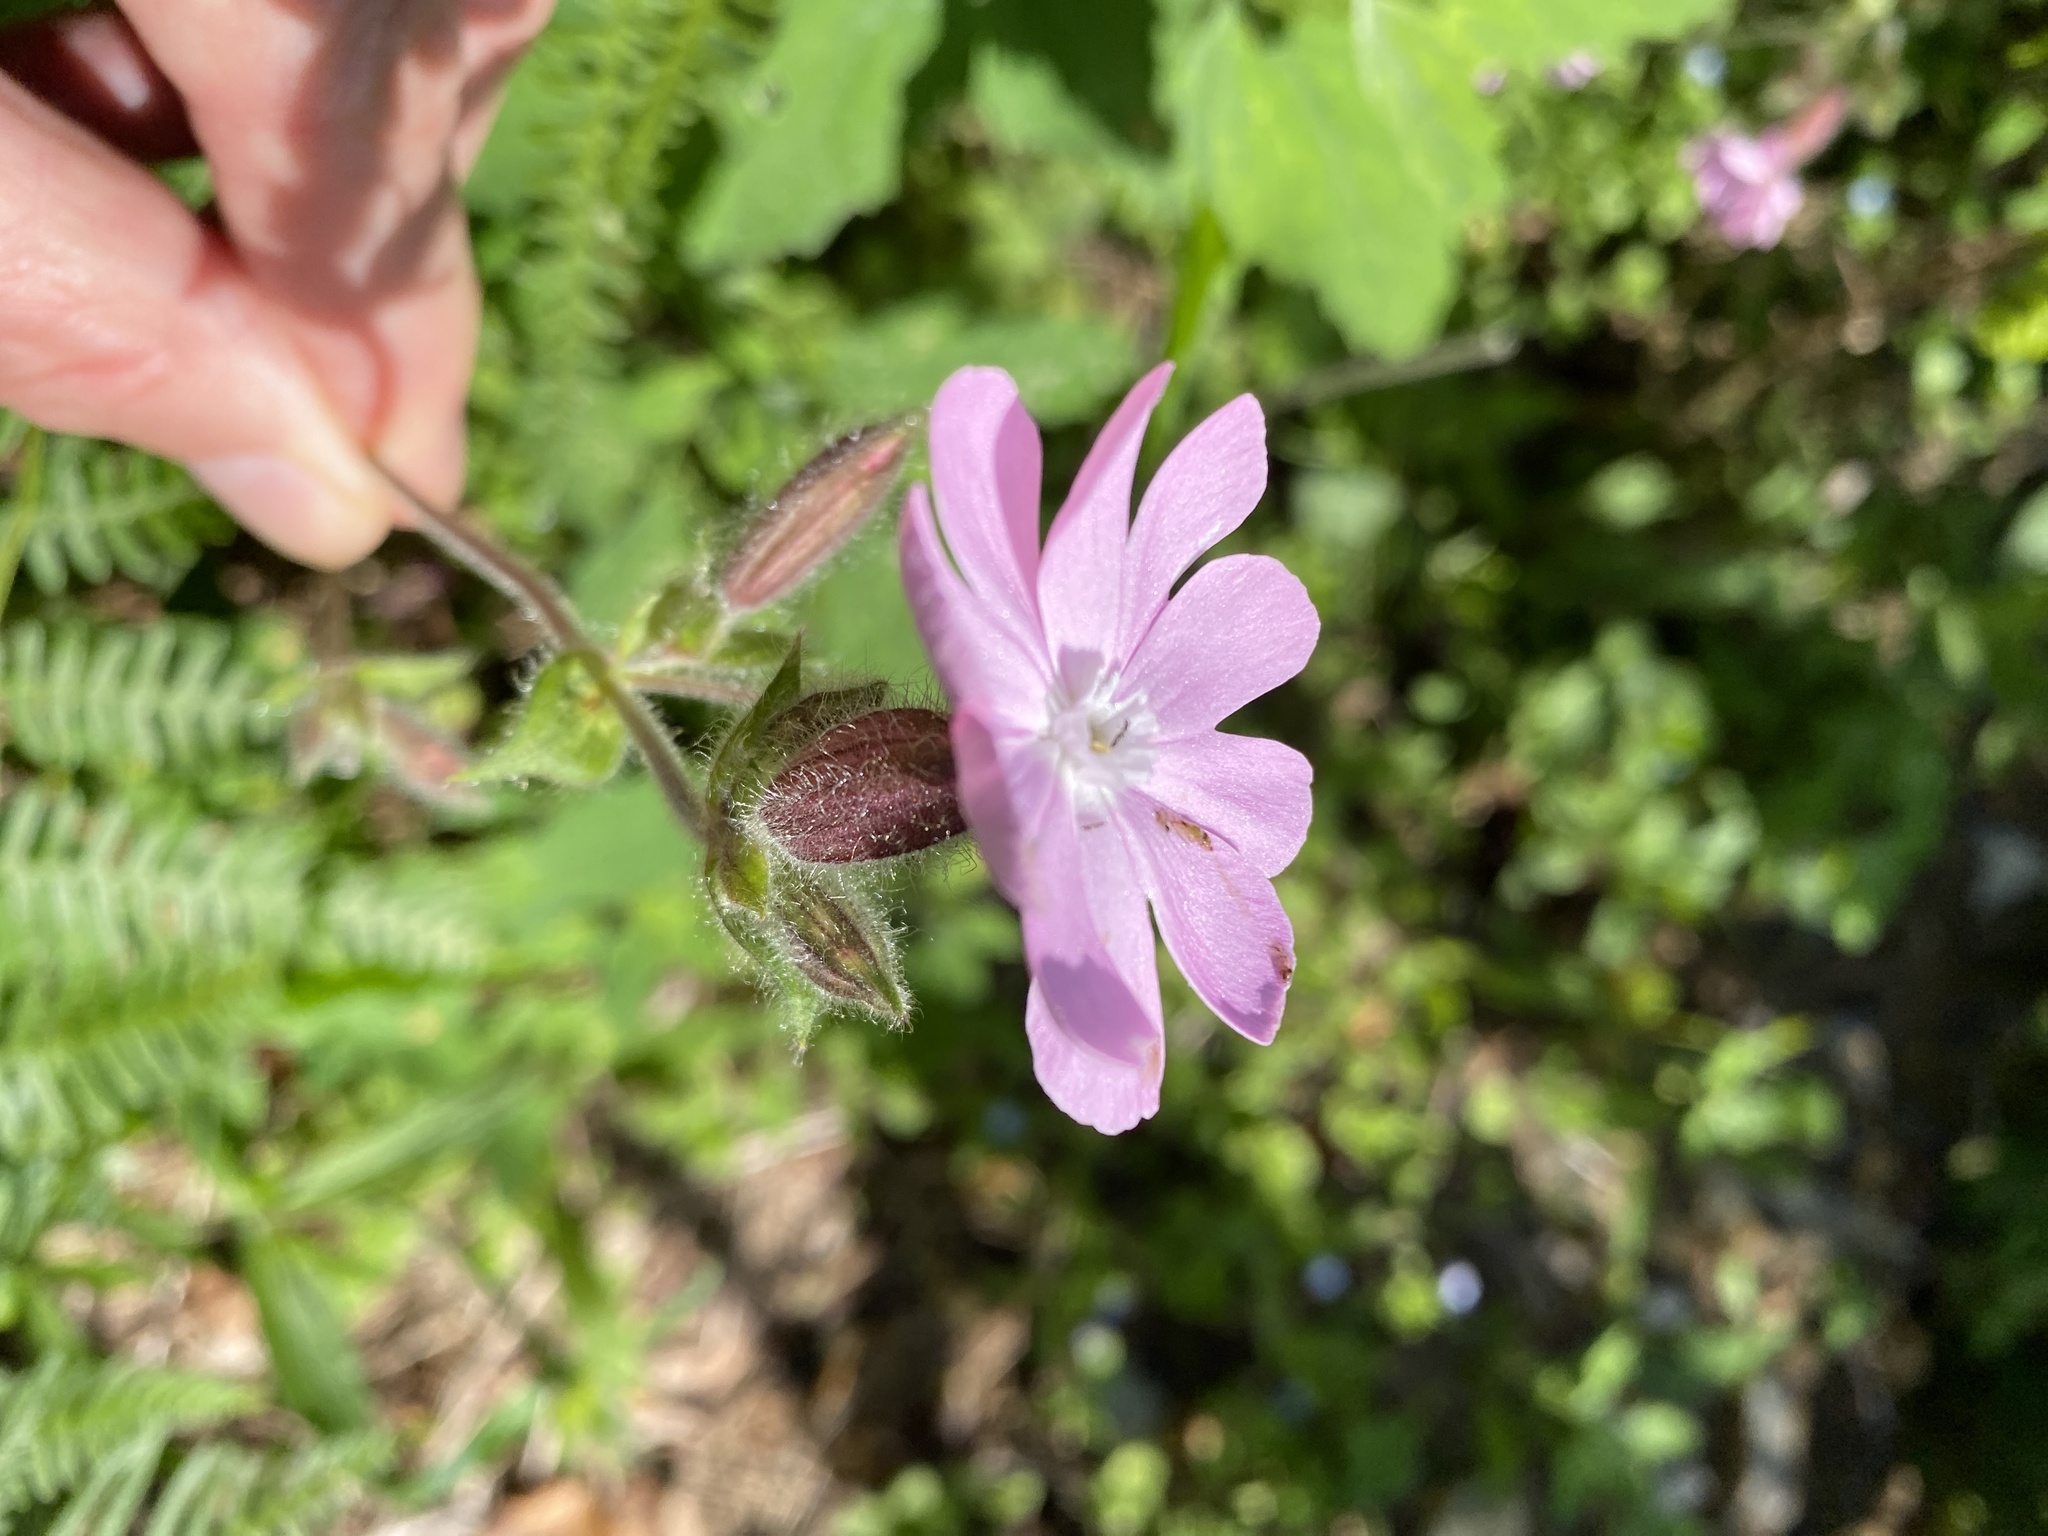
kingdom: Plantae
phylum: Tracheophyta
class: Magnoliopsida
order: Caryophyllales
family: Caryophyllaceae
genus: Silene
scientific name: Silene dioica
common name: Red campion
